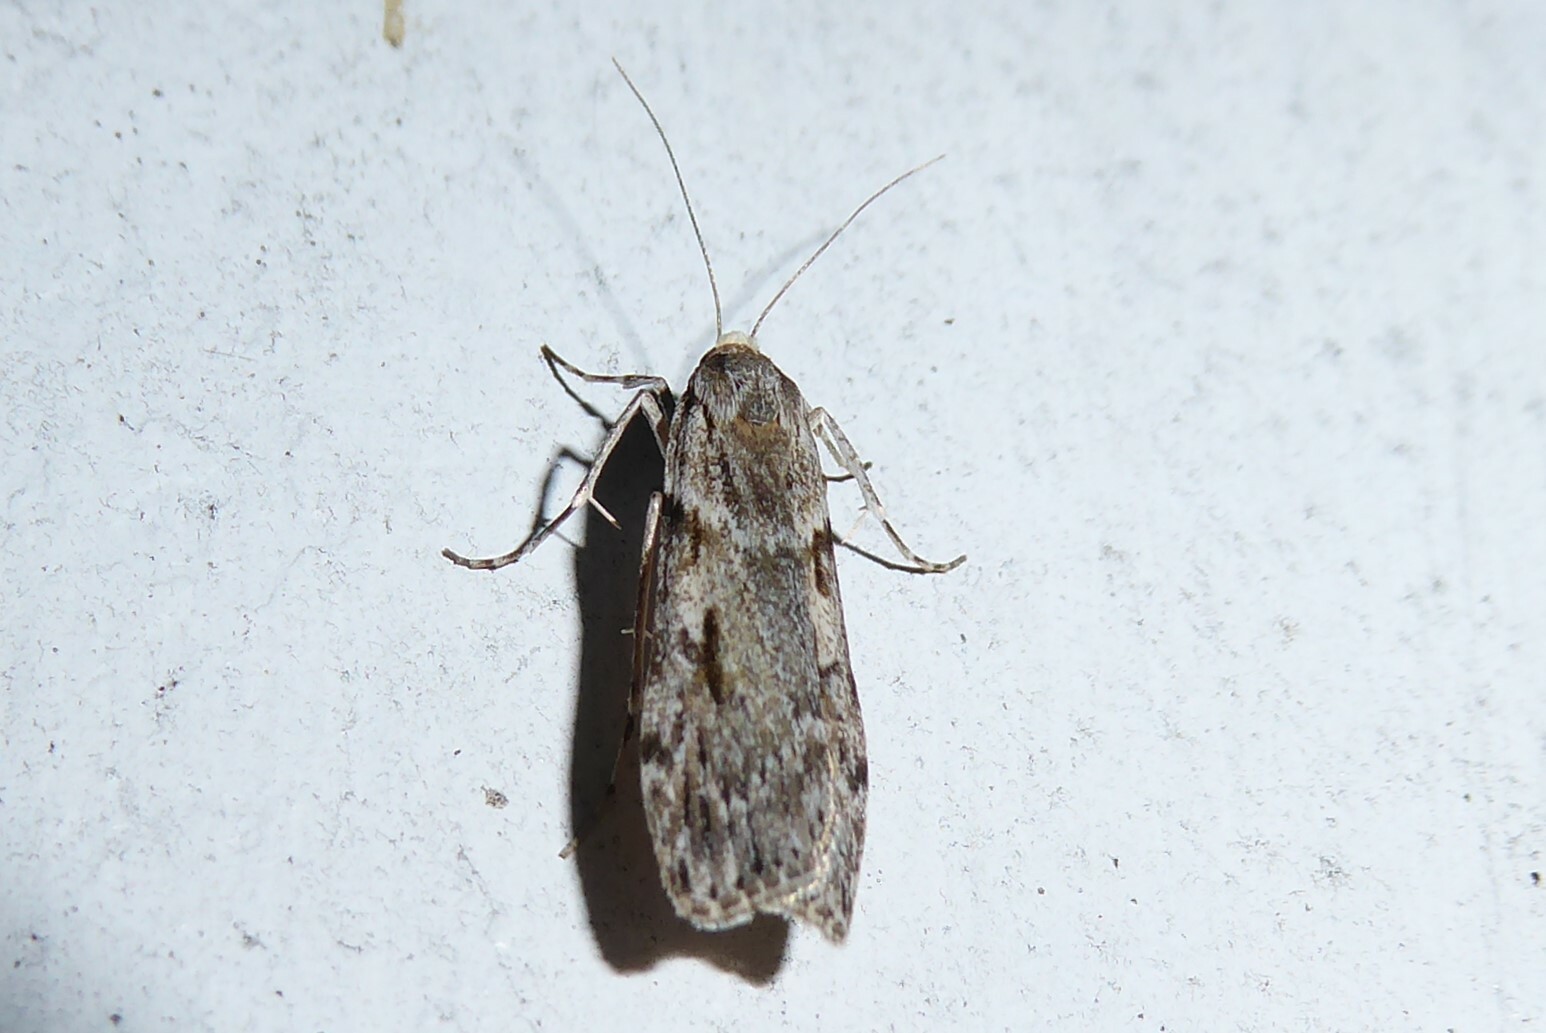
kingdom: Animalia
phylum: Arthropoda
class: Insecta
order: Lepidoptera
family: Crambidae
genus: Scoparia
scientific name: Scoparia halopis
